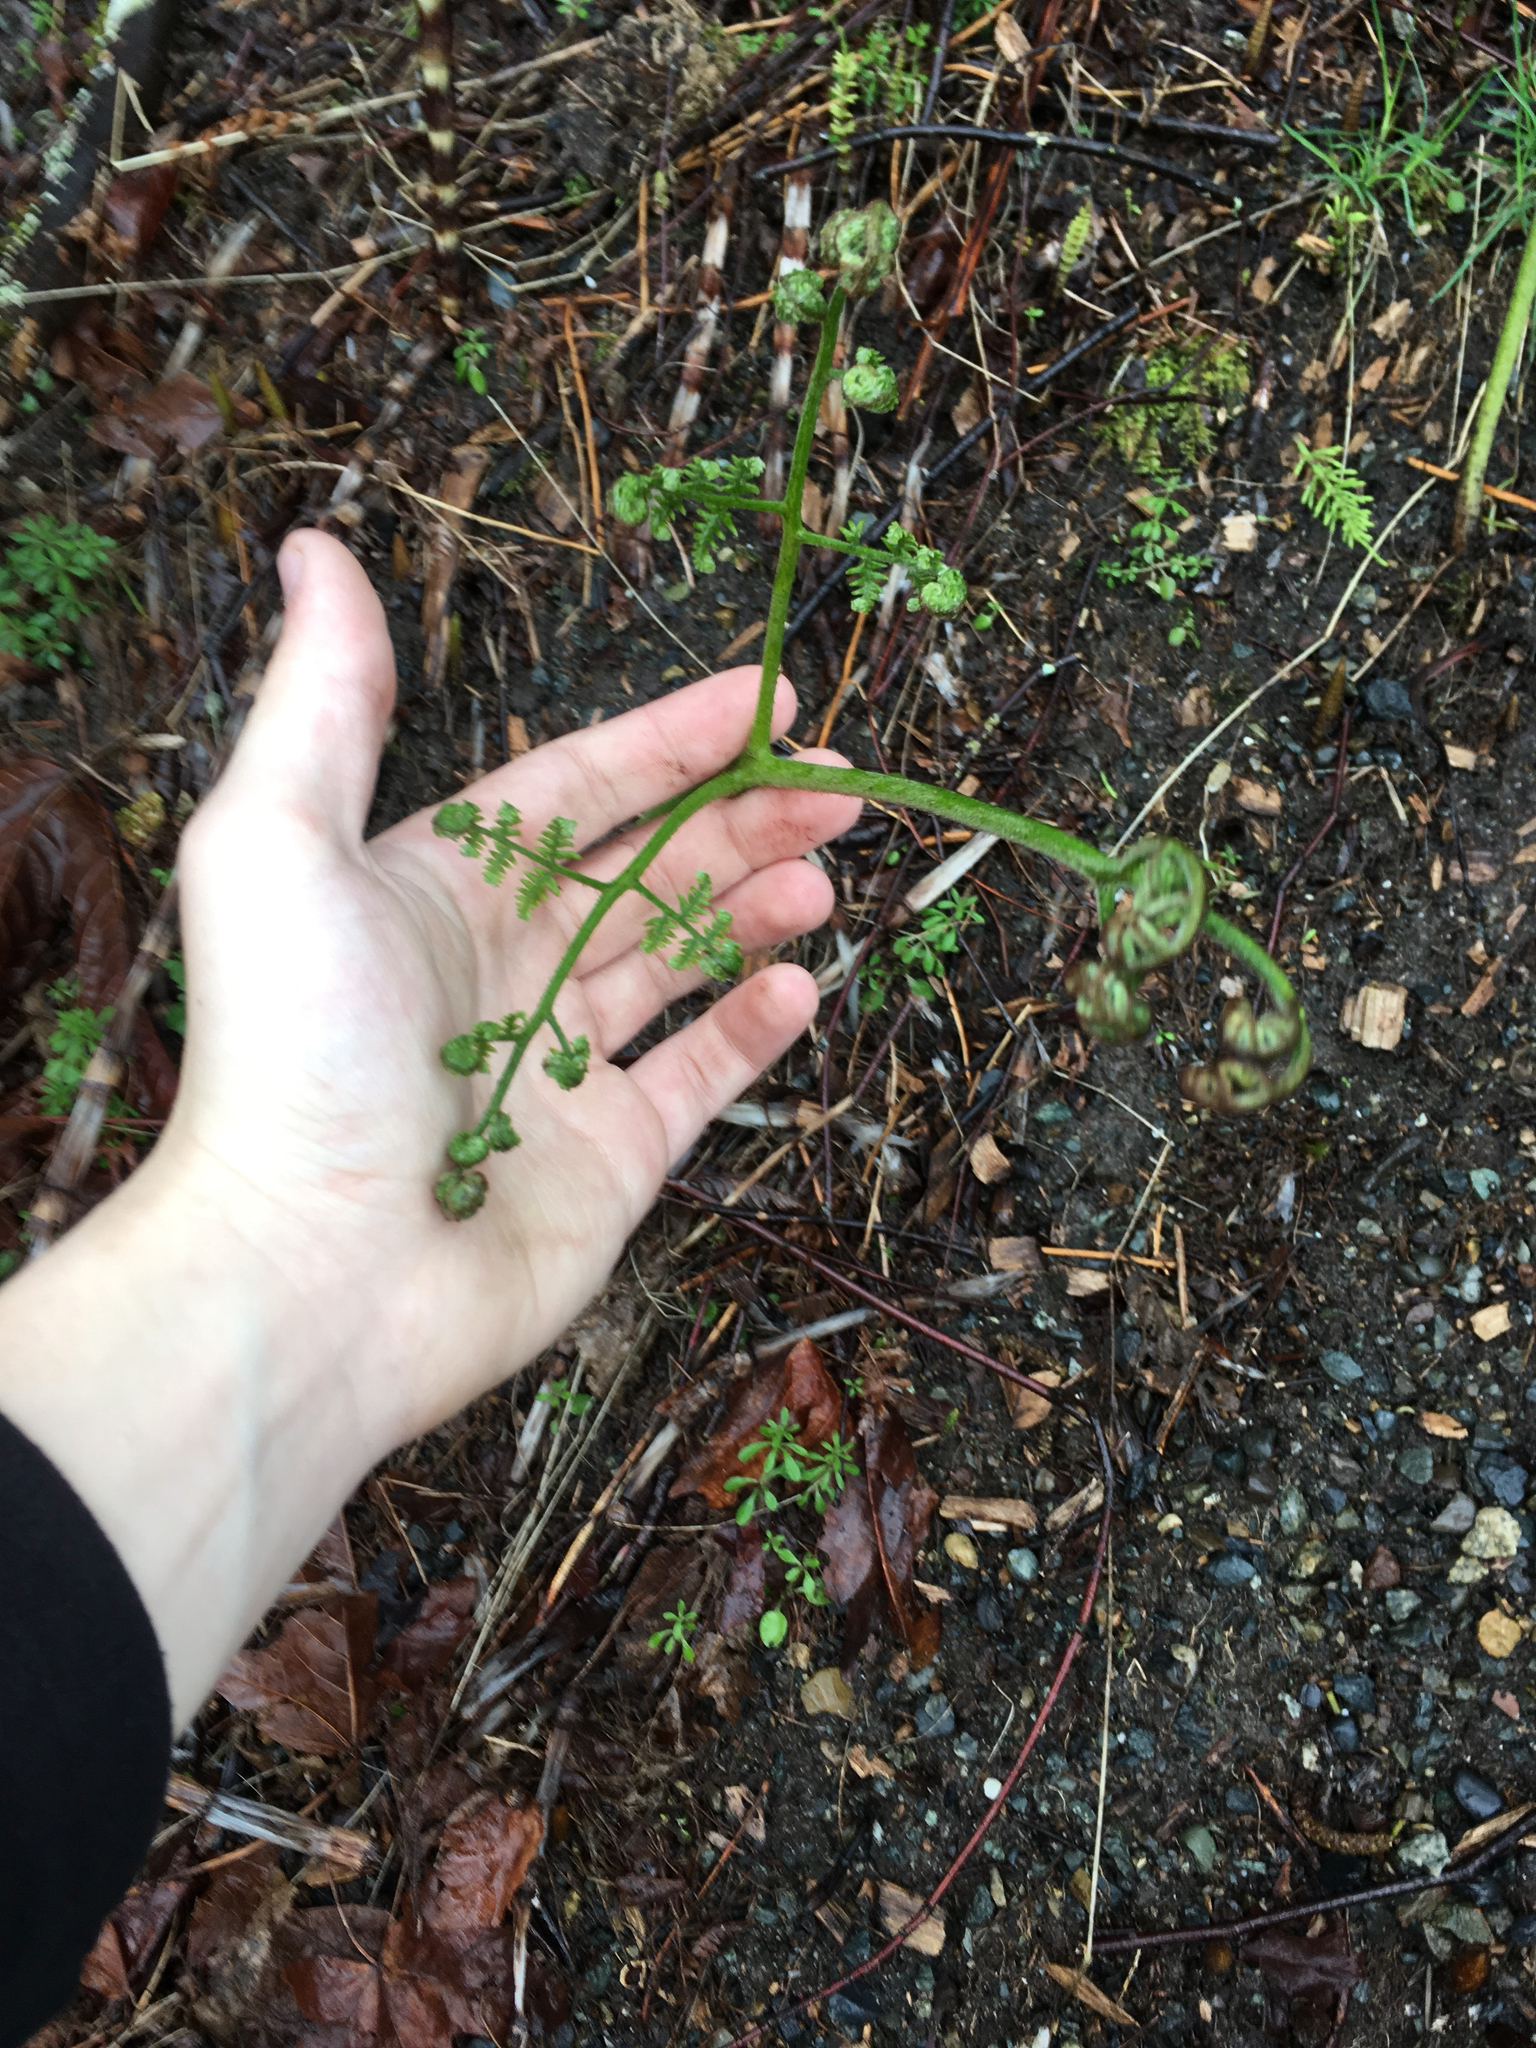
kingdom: Plantae
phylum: Tracheophyta
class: Polypodiopsida
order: Polypodiales
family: Dennstaedtiaceae
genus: Pteridium
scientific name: Pteridium aquilinum
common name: Bracken
